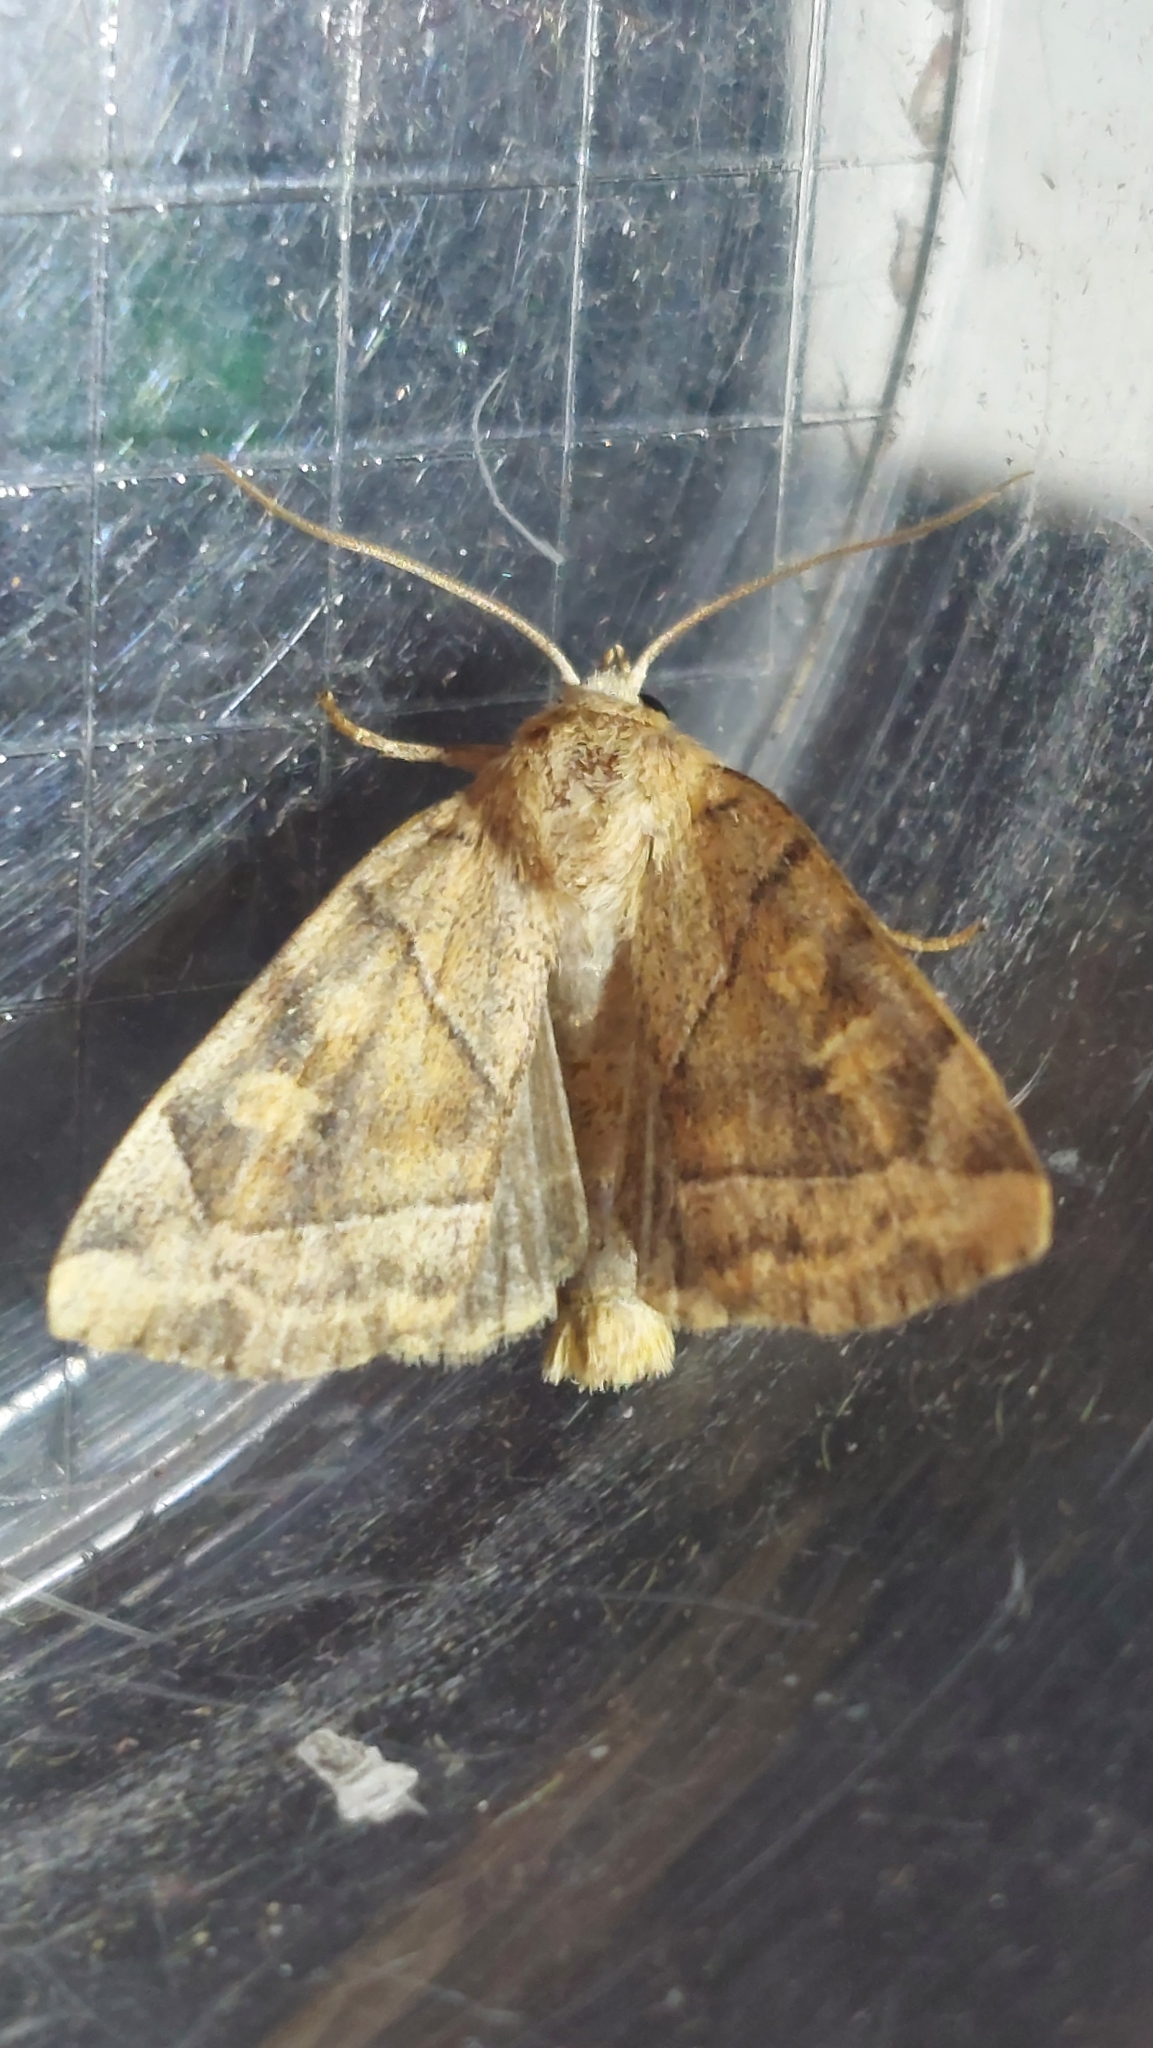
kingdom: Animalia
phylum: Arthropoda
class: Insecta
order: Lepidoptera
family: Noctuidae
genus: Cosmia
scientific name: Cosmia trapezina
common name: Dun-bar
